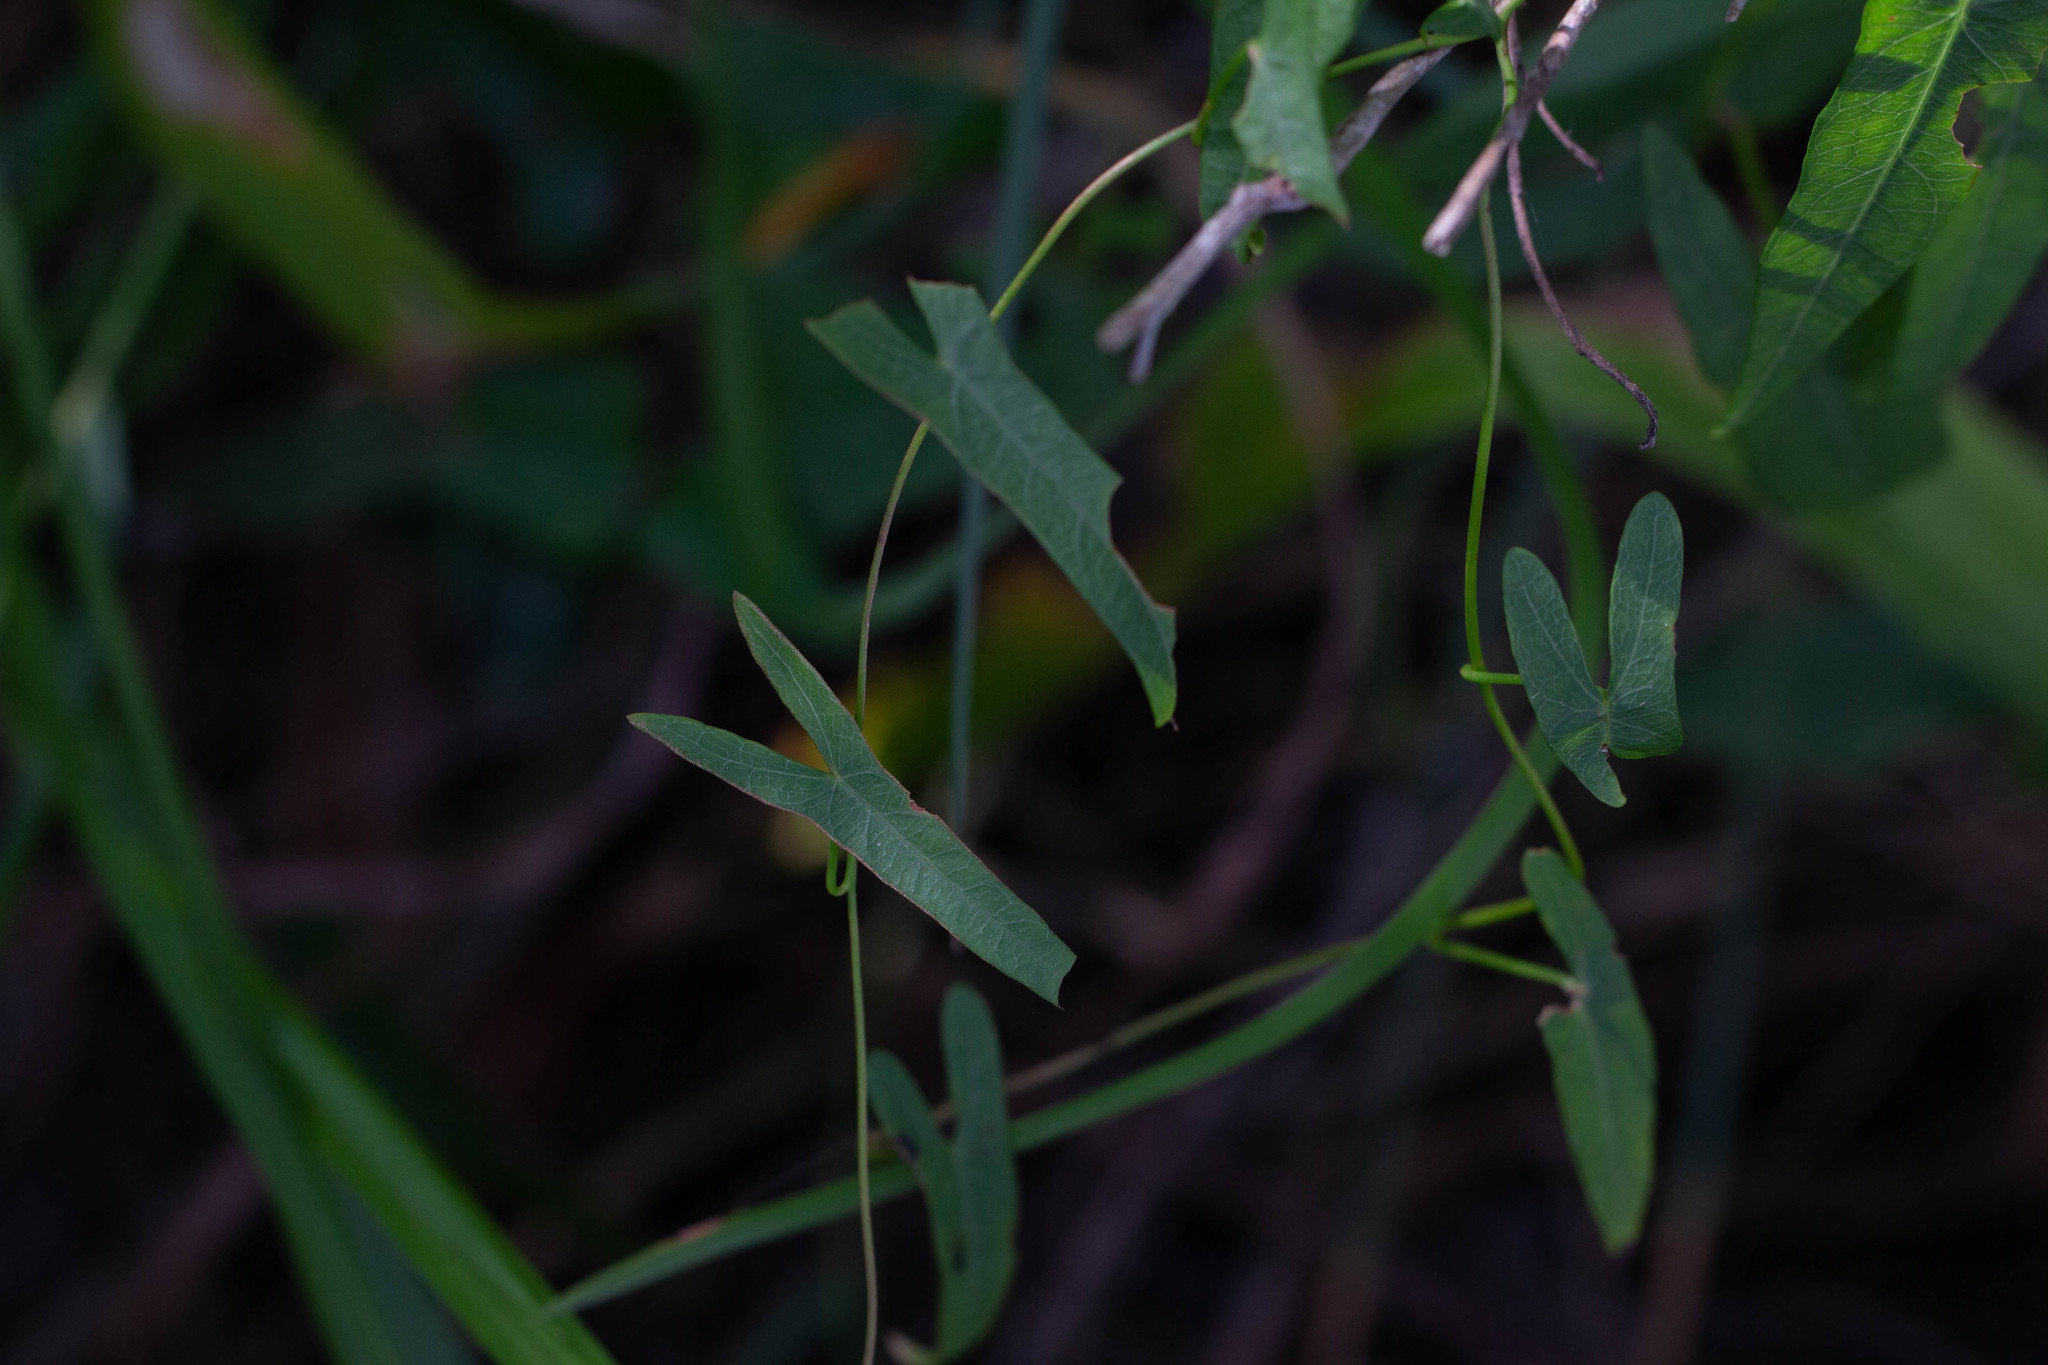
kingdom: Plantae
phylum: Tracheophyta
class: Magnoliopsida
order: Solanales
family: Convolvulaceae
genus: Ipomoea
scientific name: Ipomoea sagittata
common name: Saltmarsh morning glory
